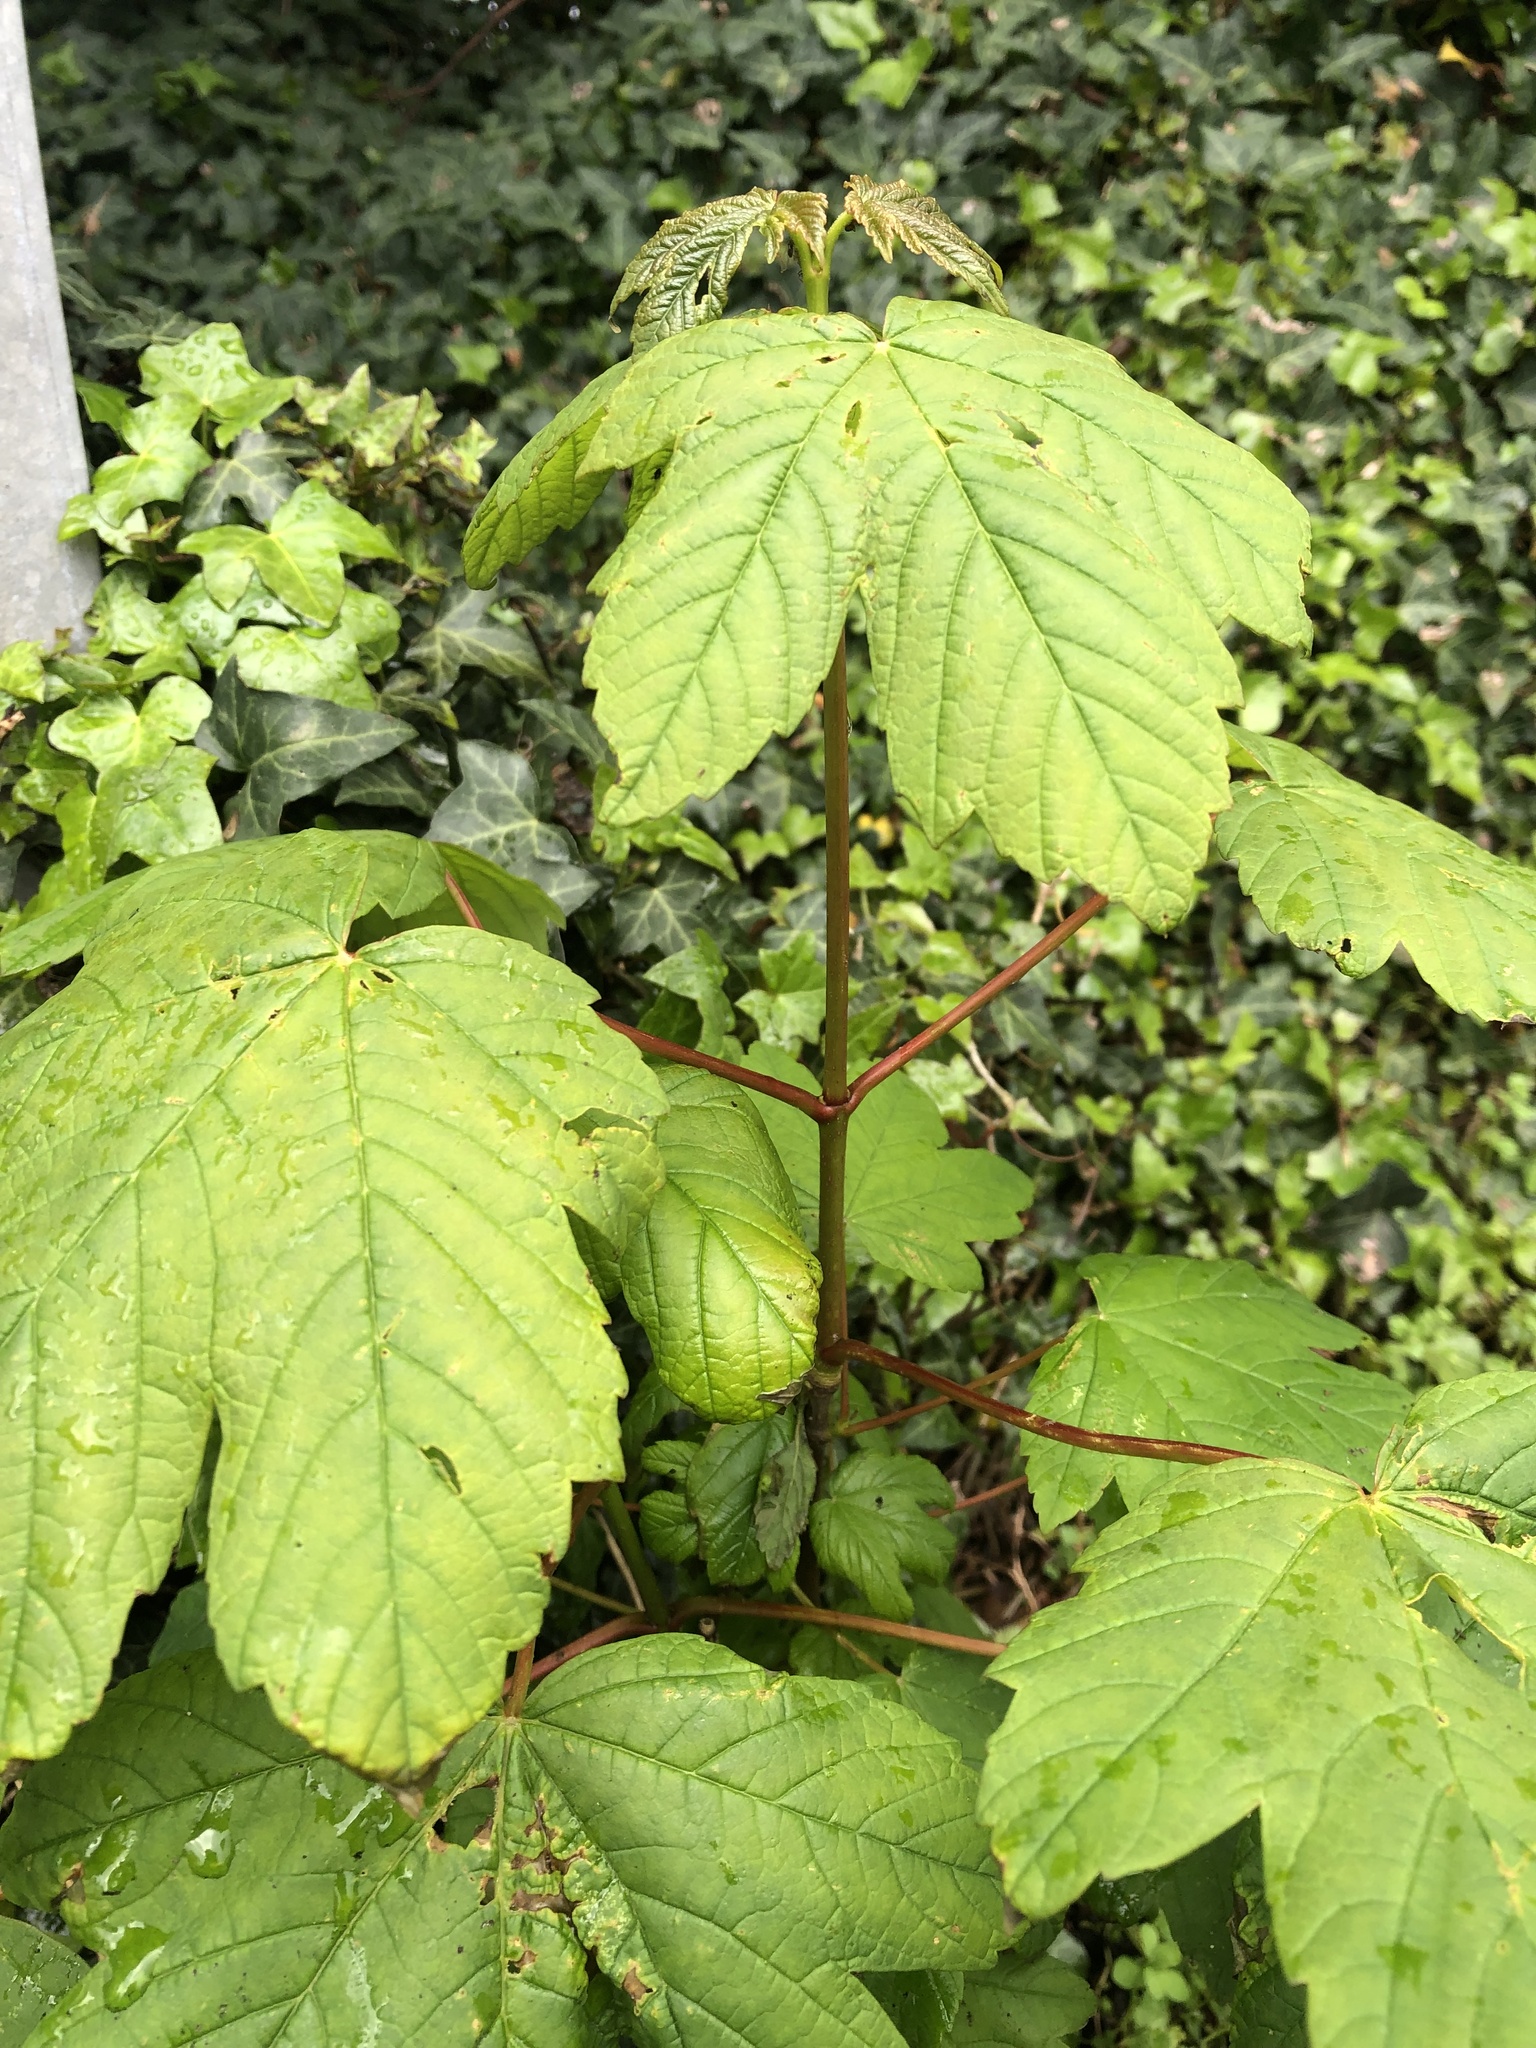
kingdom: Plantae
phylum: Tracheophyta
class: Magnoliopsida
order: Sapindales
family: Sapindaceae
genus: Acer
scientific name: Acer pseudoplatanus
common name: Sycamore
